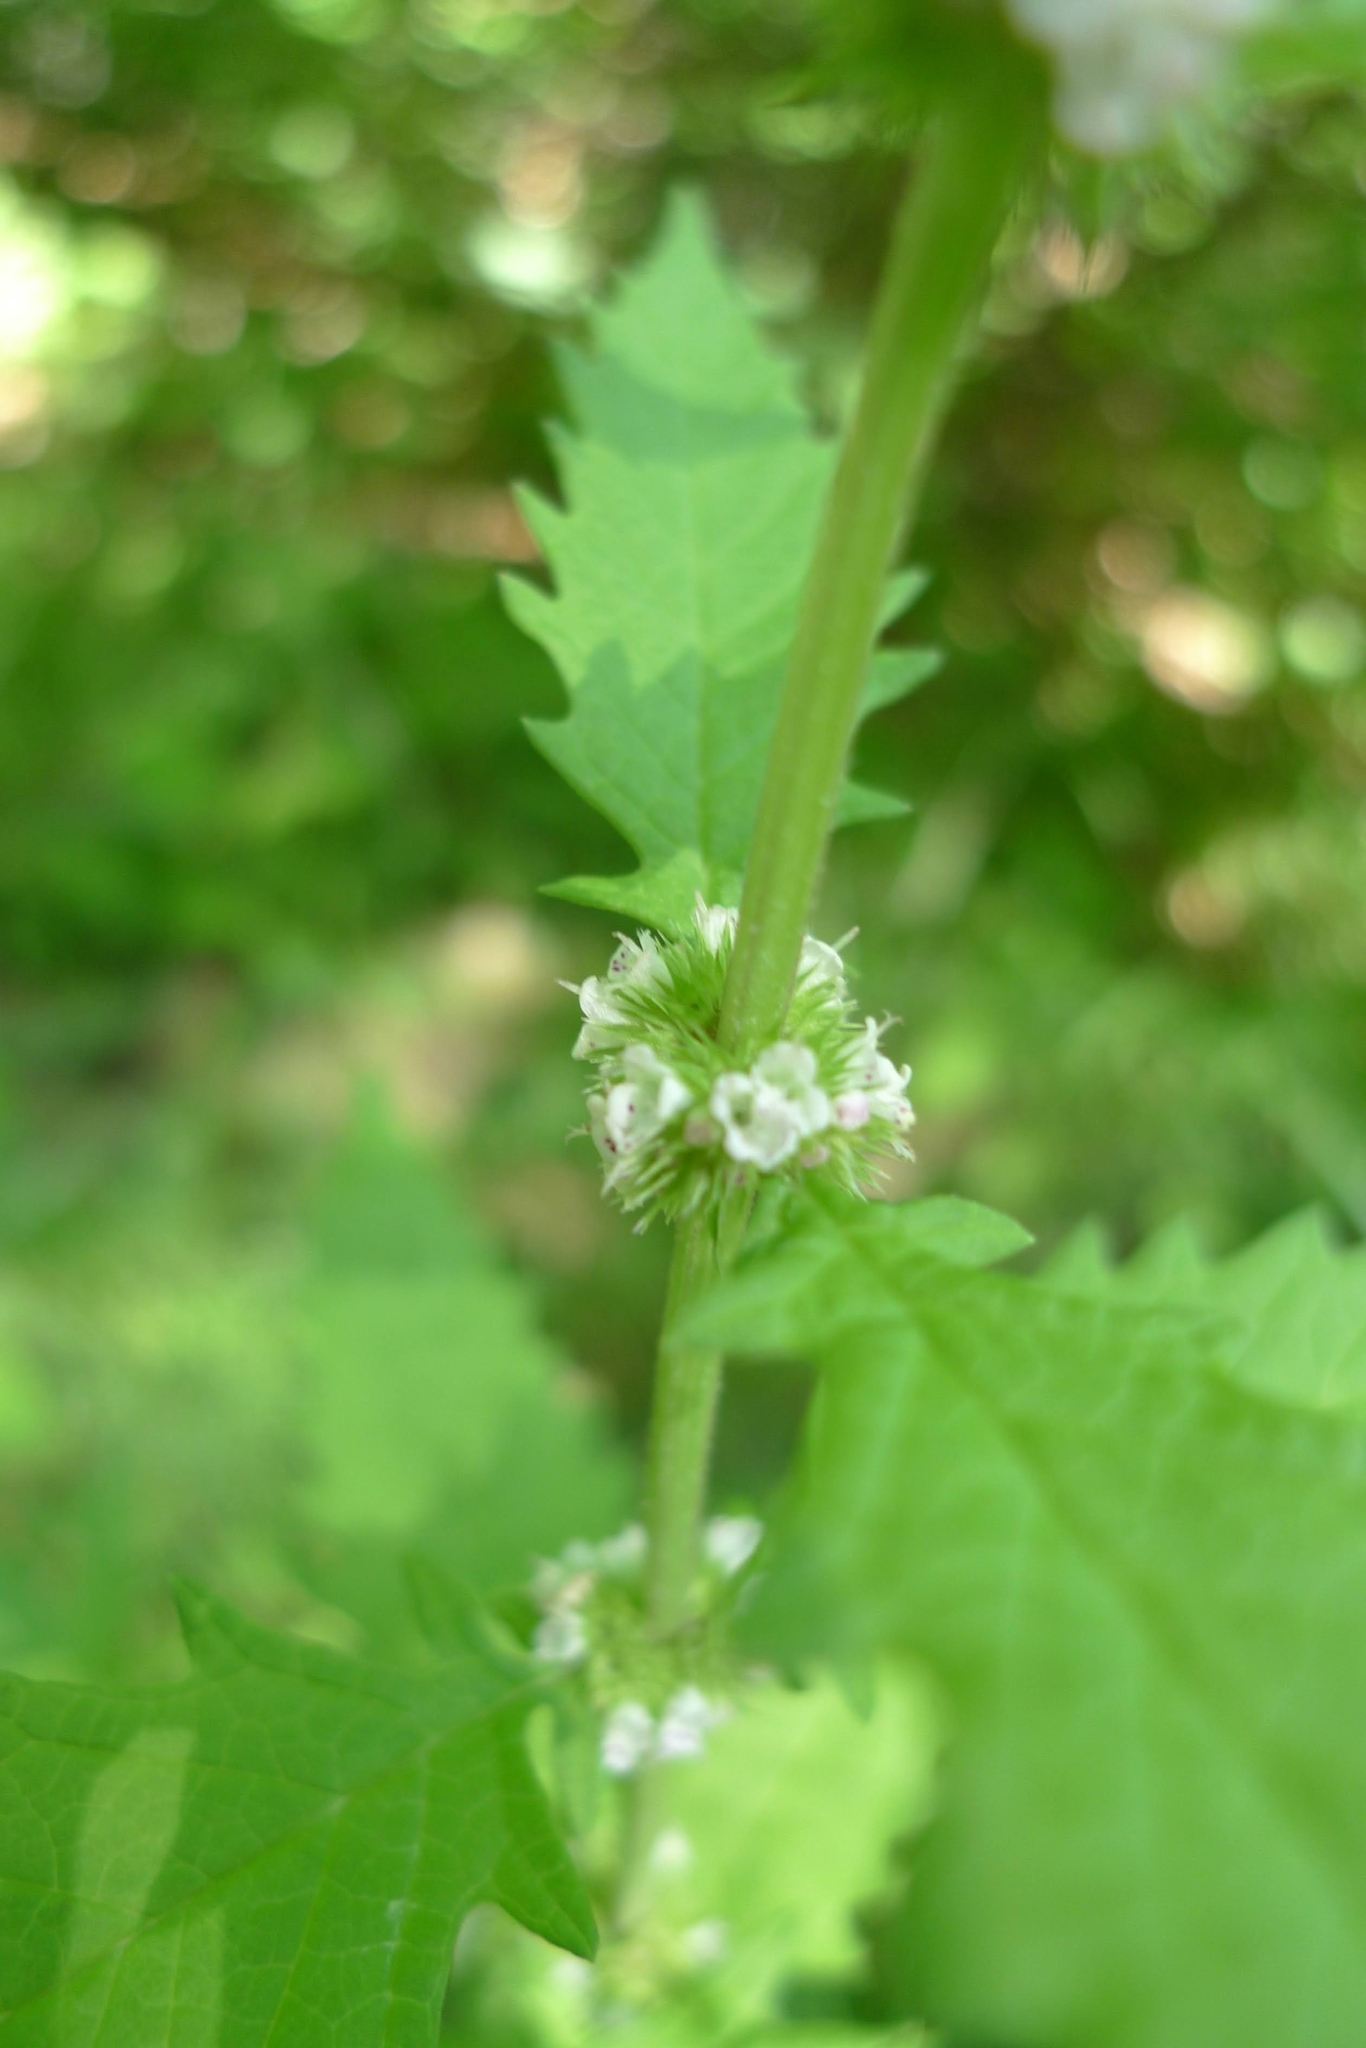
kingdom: Plantae
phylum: Tracheophyta
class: Magnoliopsida
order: Lamiales
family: Lamiaceae
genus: Lycopus
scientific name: Lycopus europaeus
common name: European bugleweed
